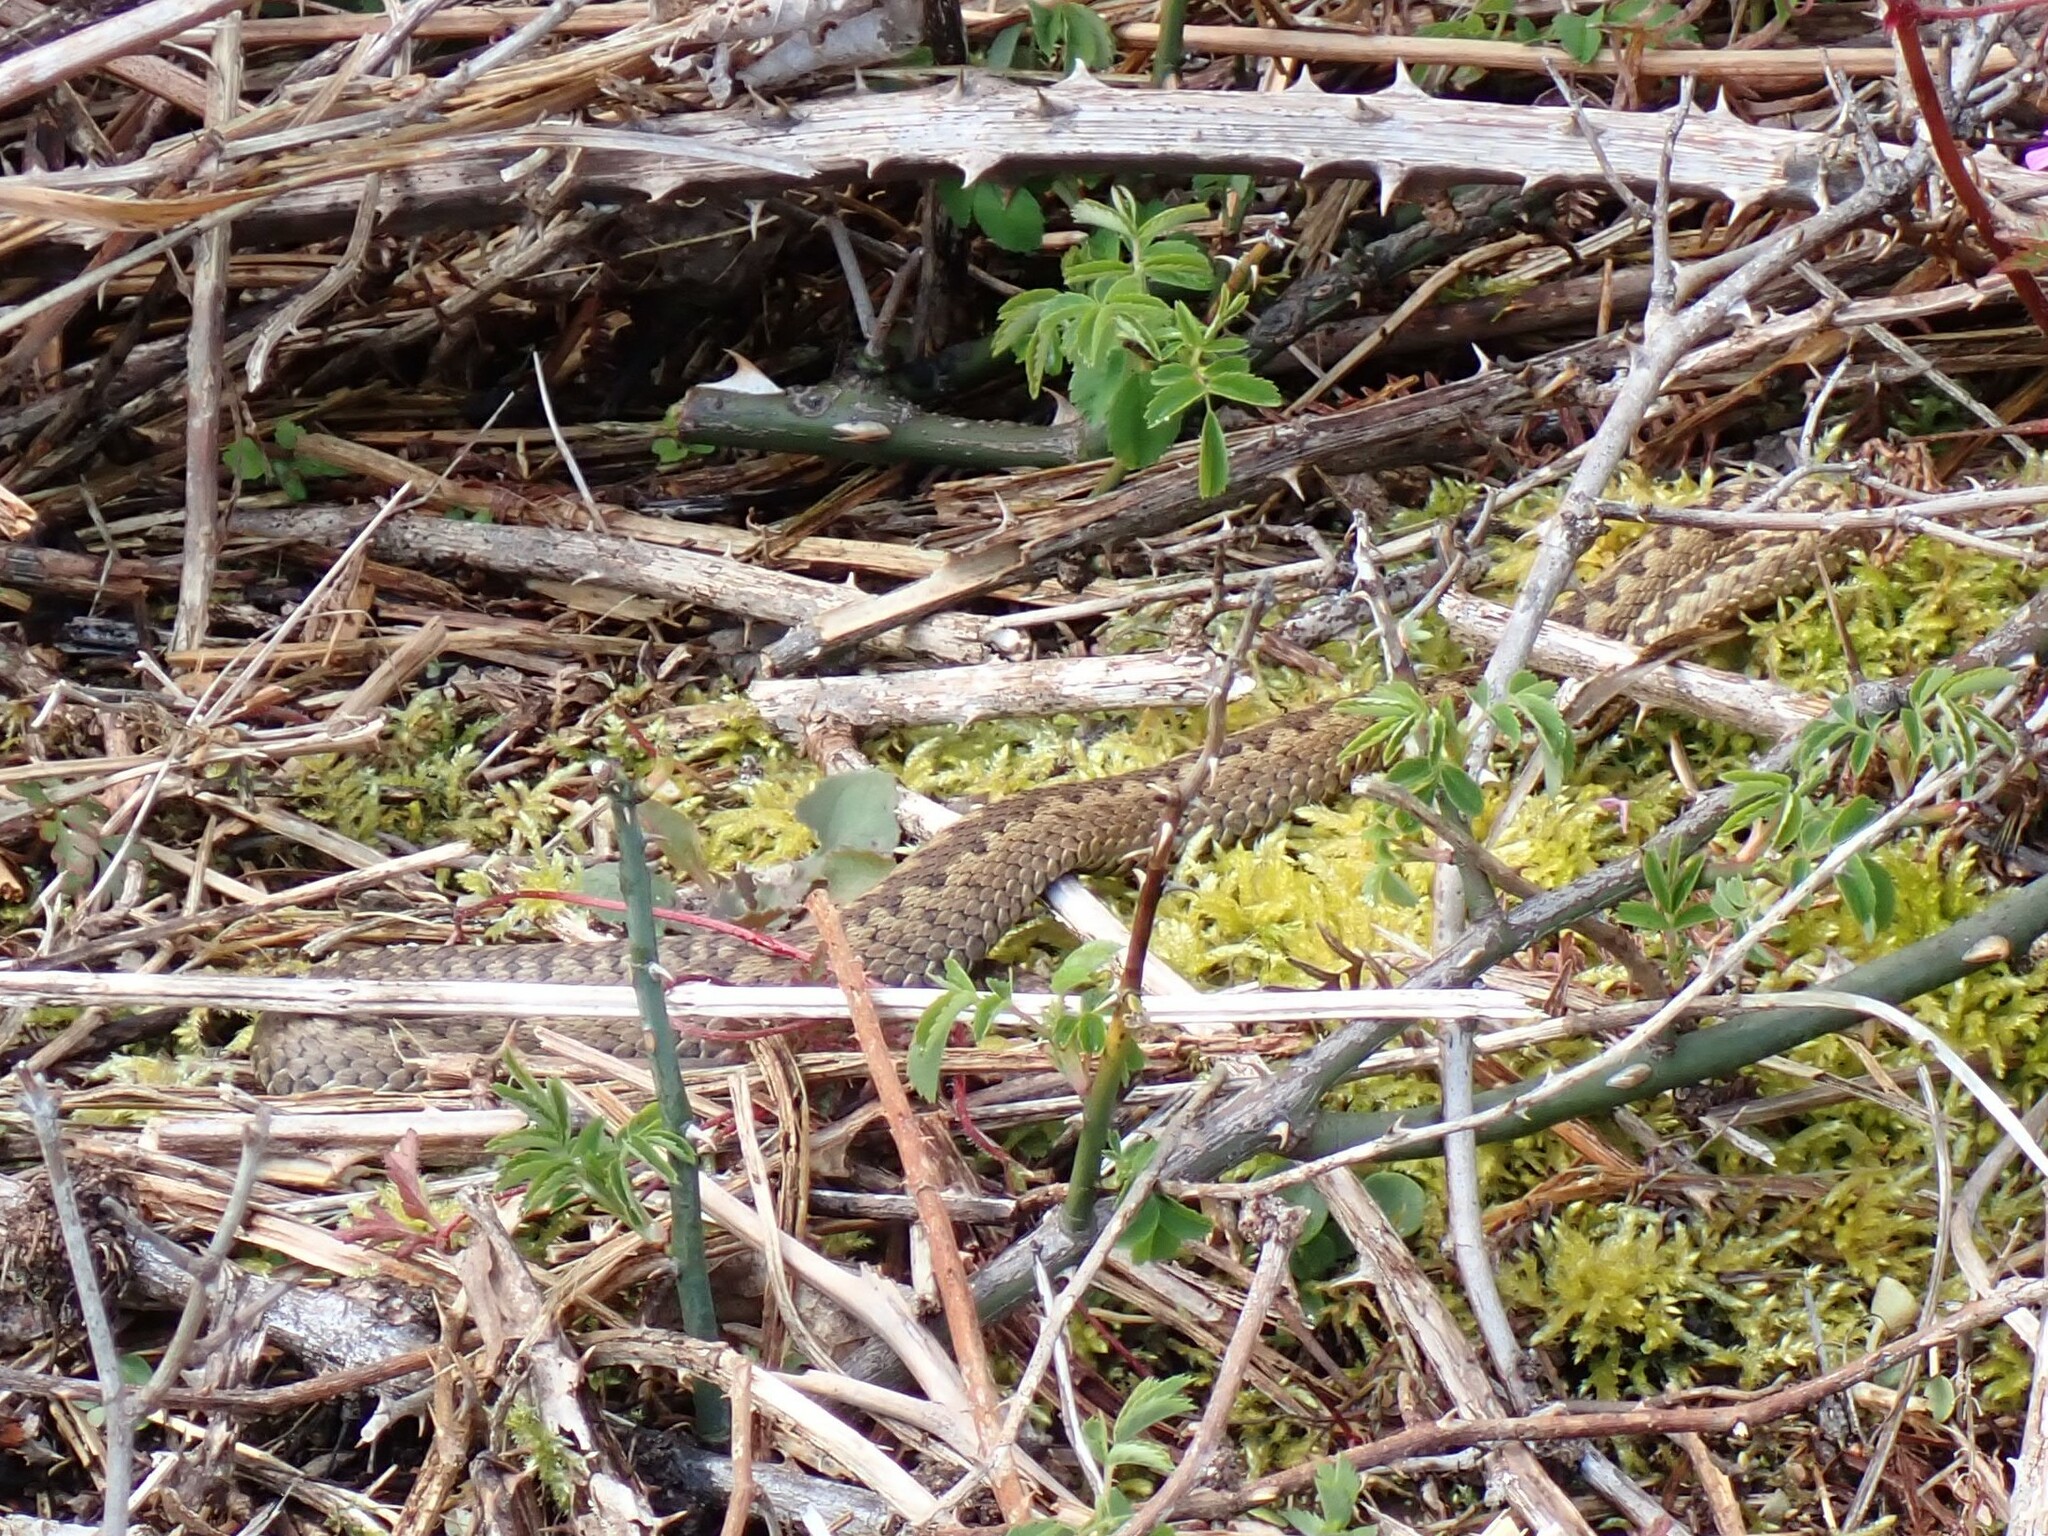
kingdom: Animalia
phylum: Chordata
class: Squamata
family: Viperidae
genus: Vipera
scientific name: Vipera berus
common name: Adder
